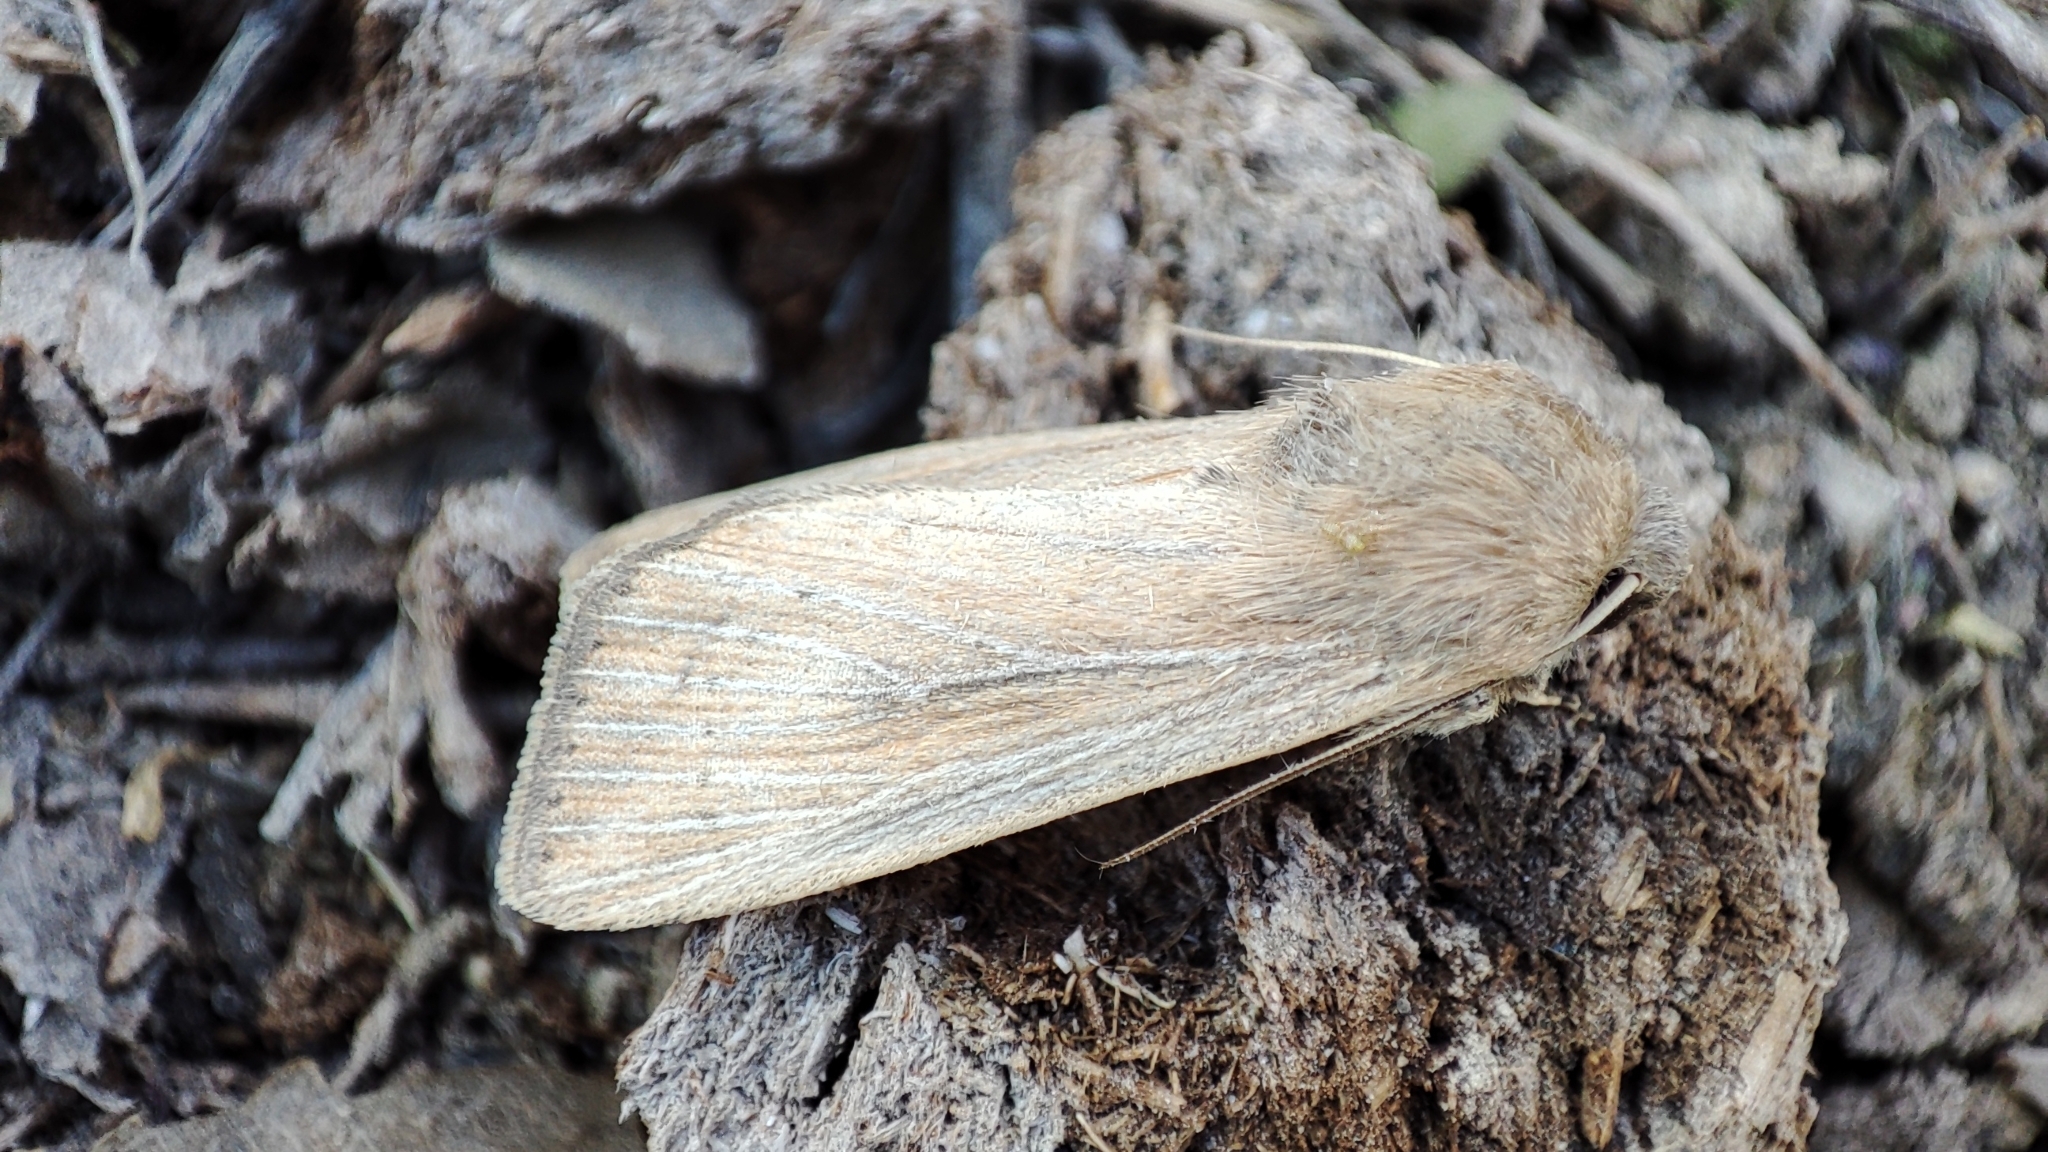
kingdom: Animalia
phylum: Arthropoda
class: Insecta
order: Lepidoptera
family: Noctuidae
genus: Leucania
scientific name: Leucania zeae
